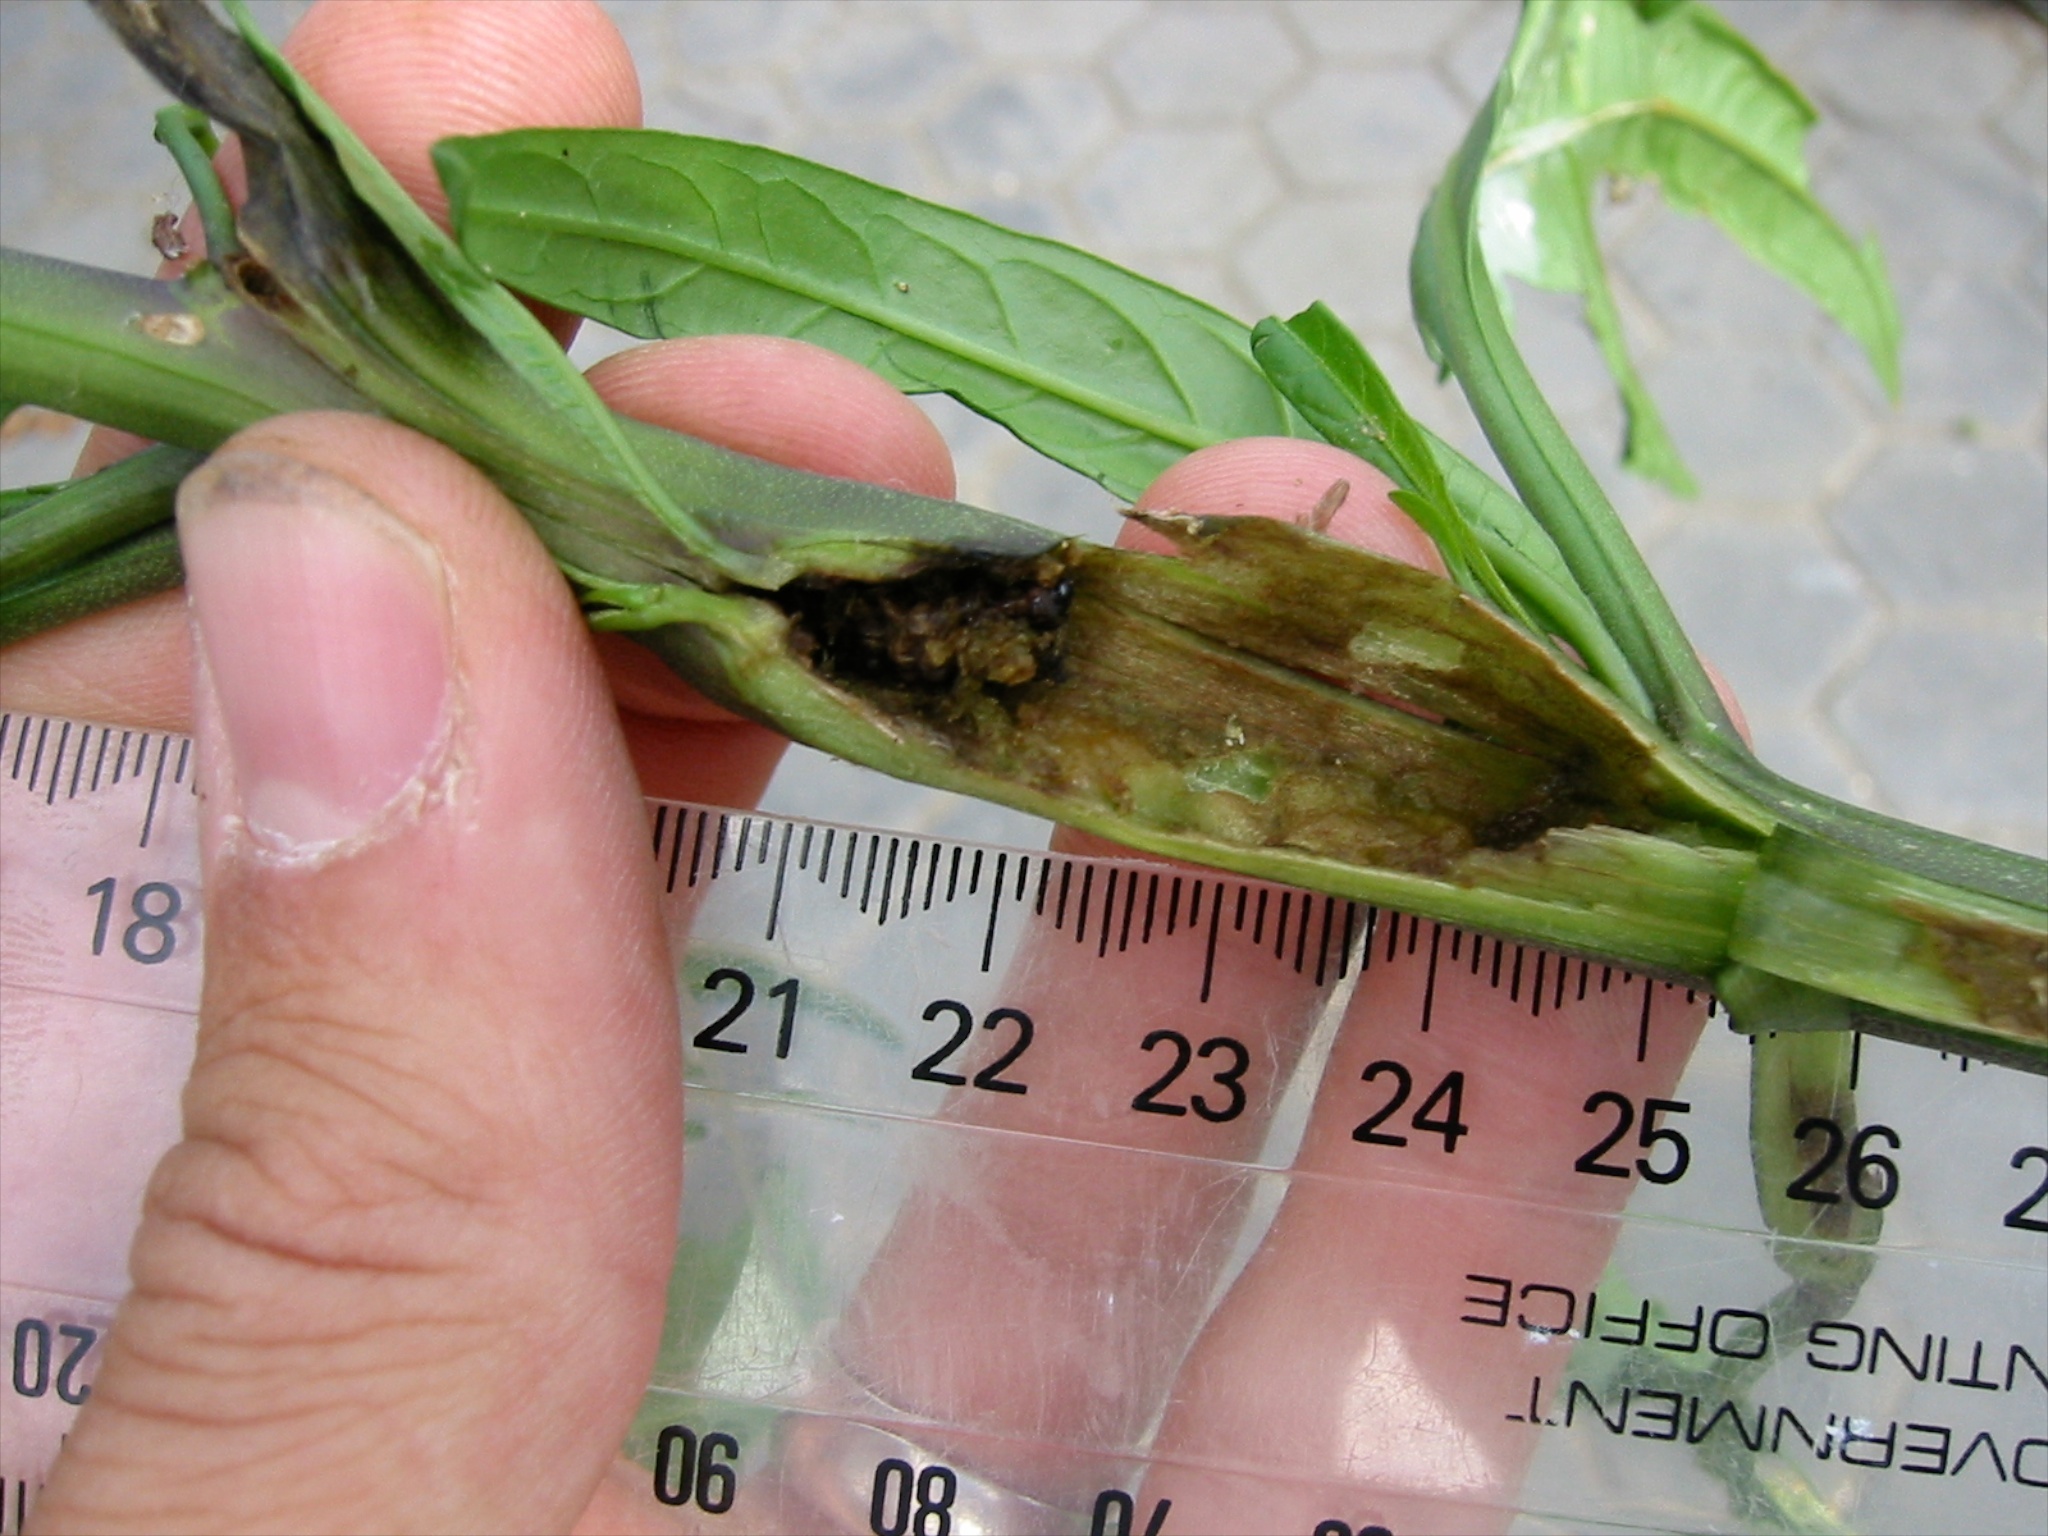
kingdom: Animalia
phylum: Arthropoda
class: Insecta
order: Lepidoptera
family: Crambidae
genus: Sceliodes
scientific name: Sceliodes cordalis
